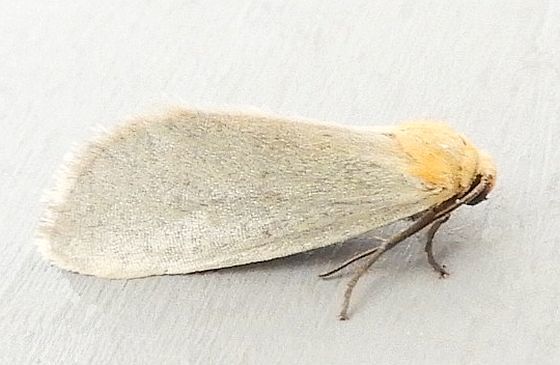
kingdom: Animalia
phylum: Arthropoda
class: Insecta
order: Lepidoptera
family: Noctuidae
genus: Chrysoecia
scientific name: Chrysoecia thoracica
